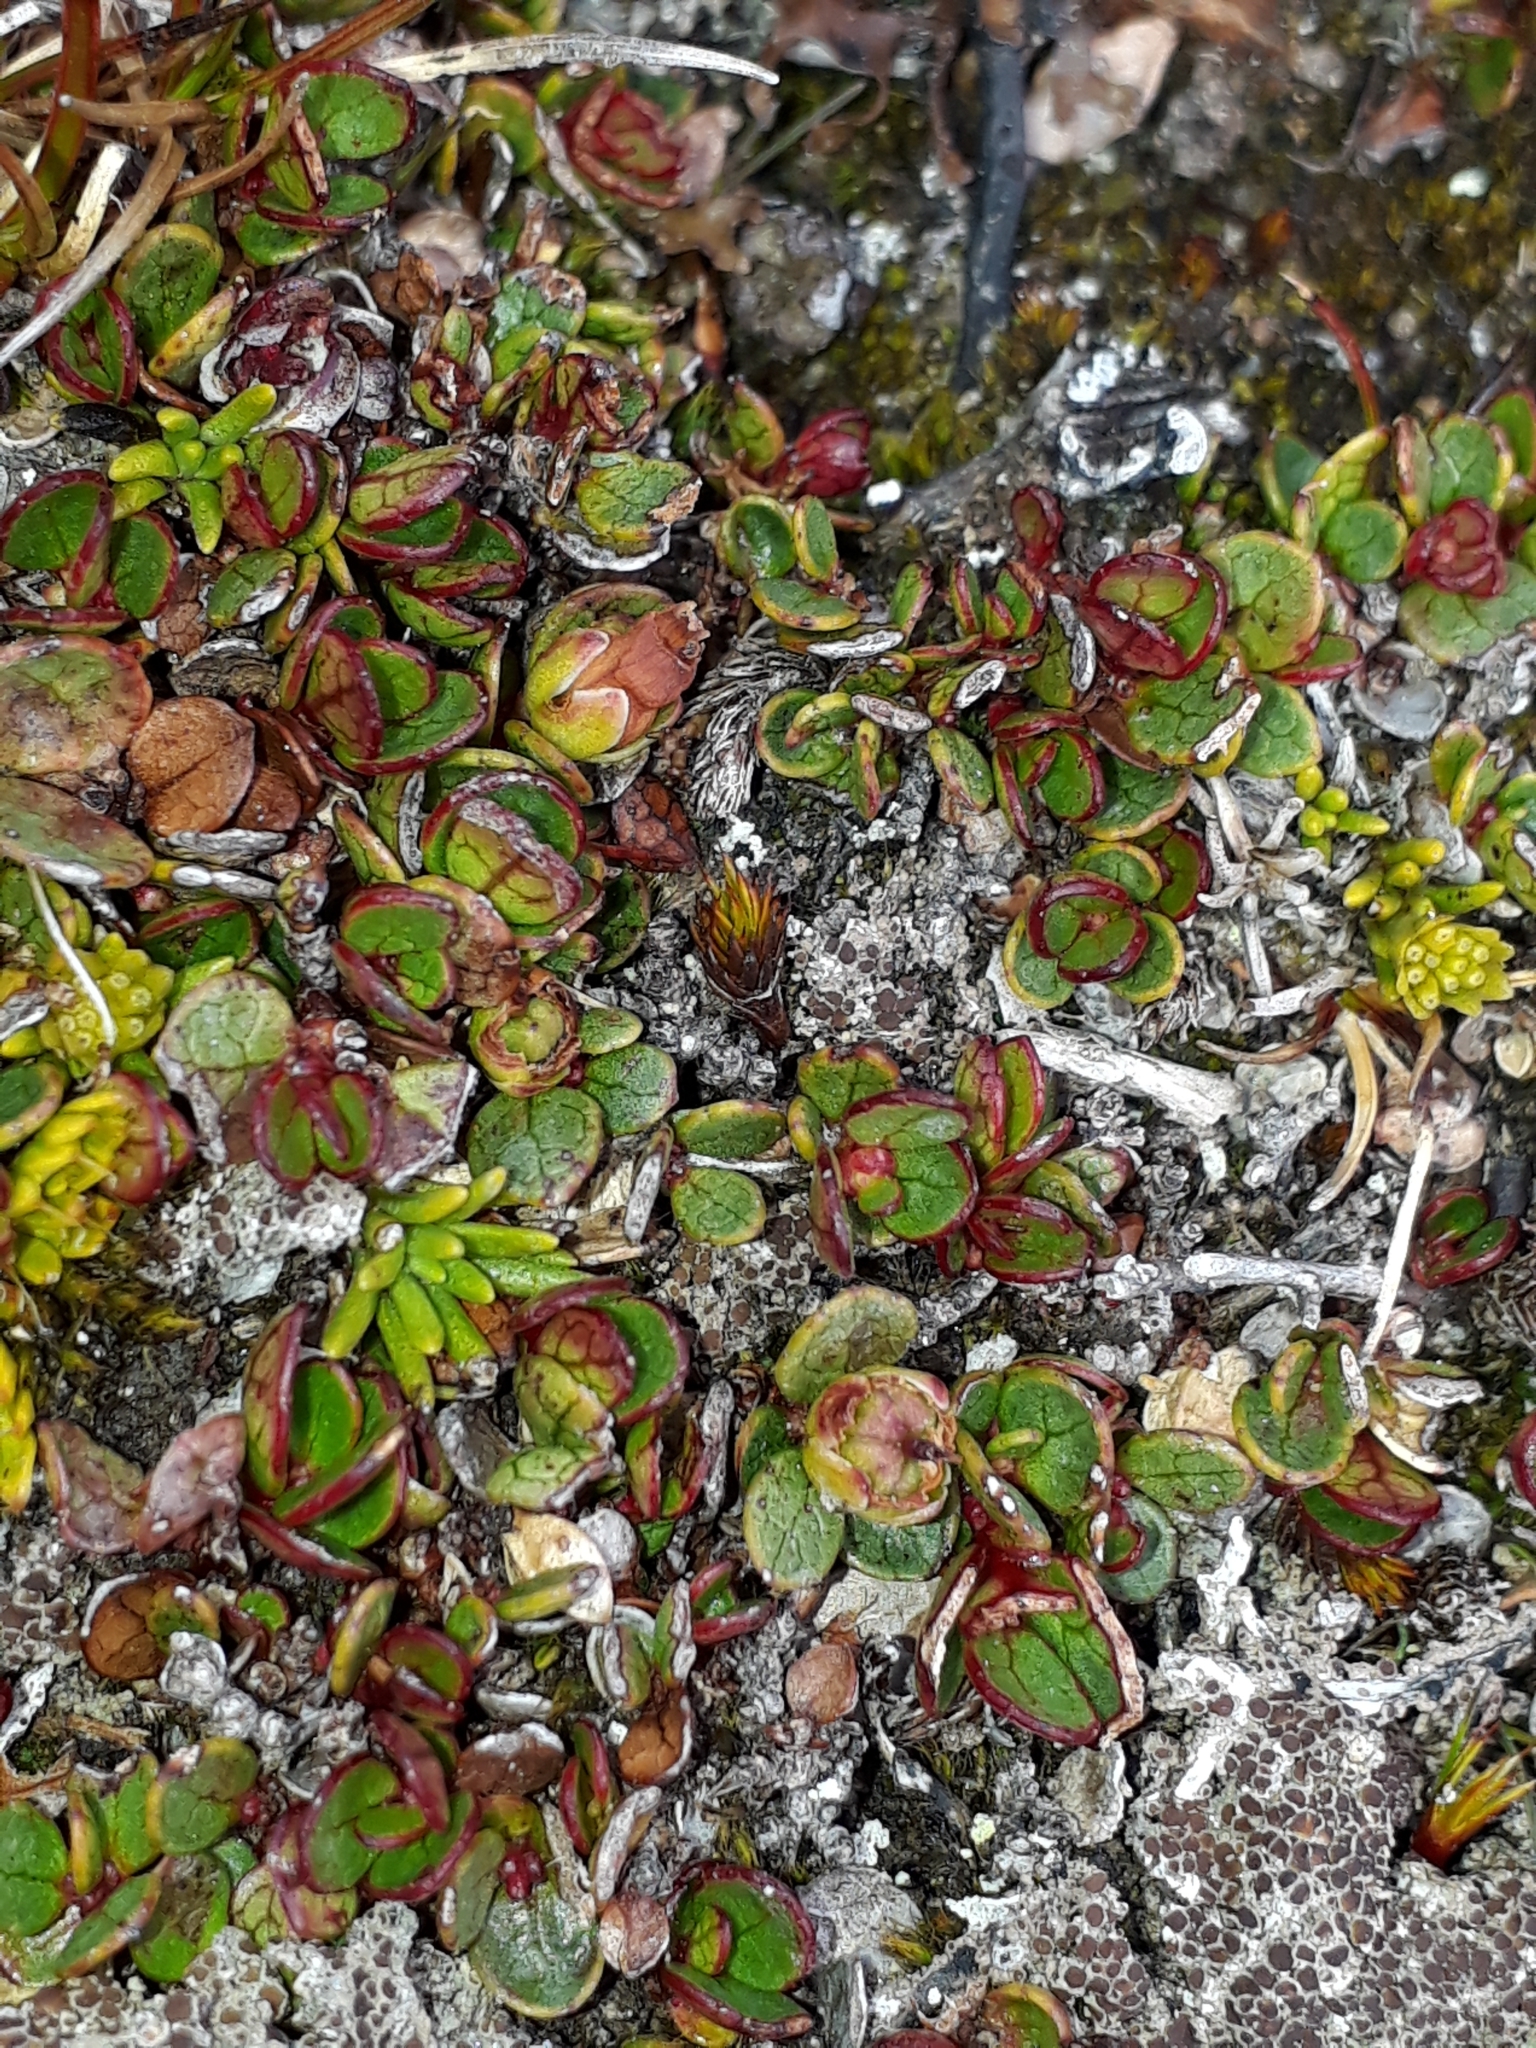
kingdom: Plantae
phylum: Tracheophyta
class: Magnoliopsida
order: Ericales
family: Ericaceae
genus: Gaultheria
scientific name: Gaultheria nubicola
